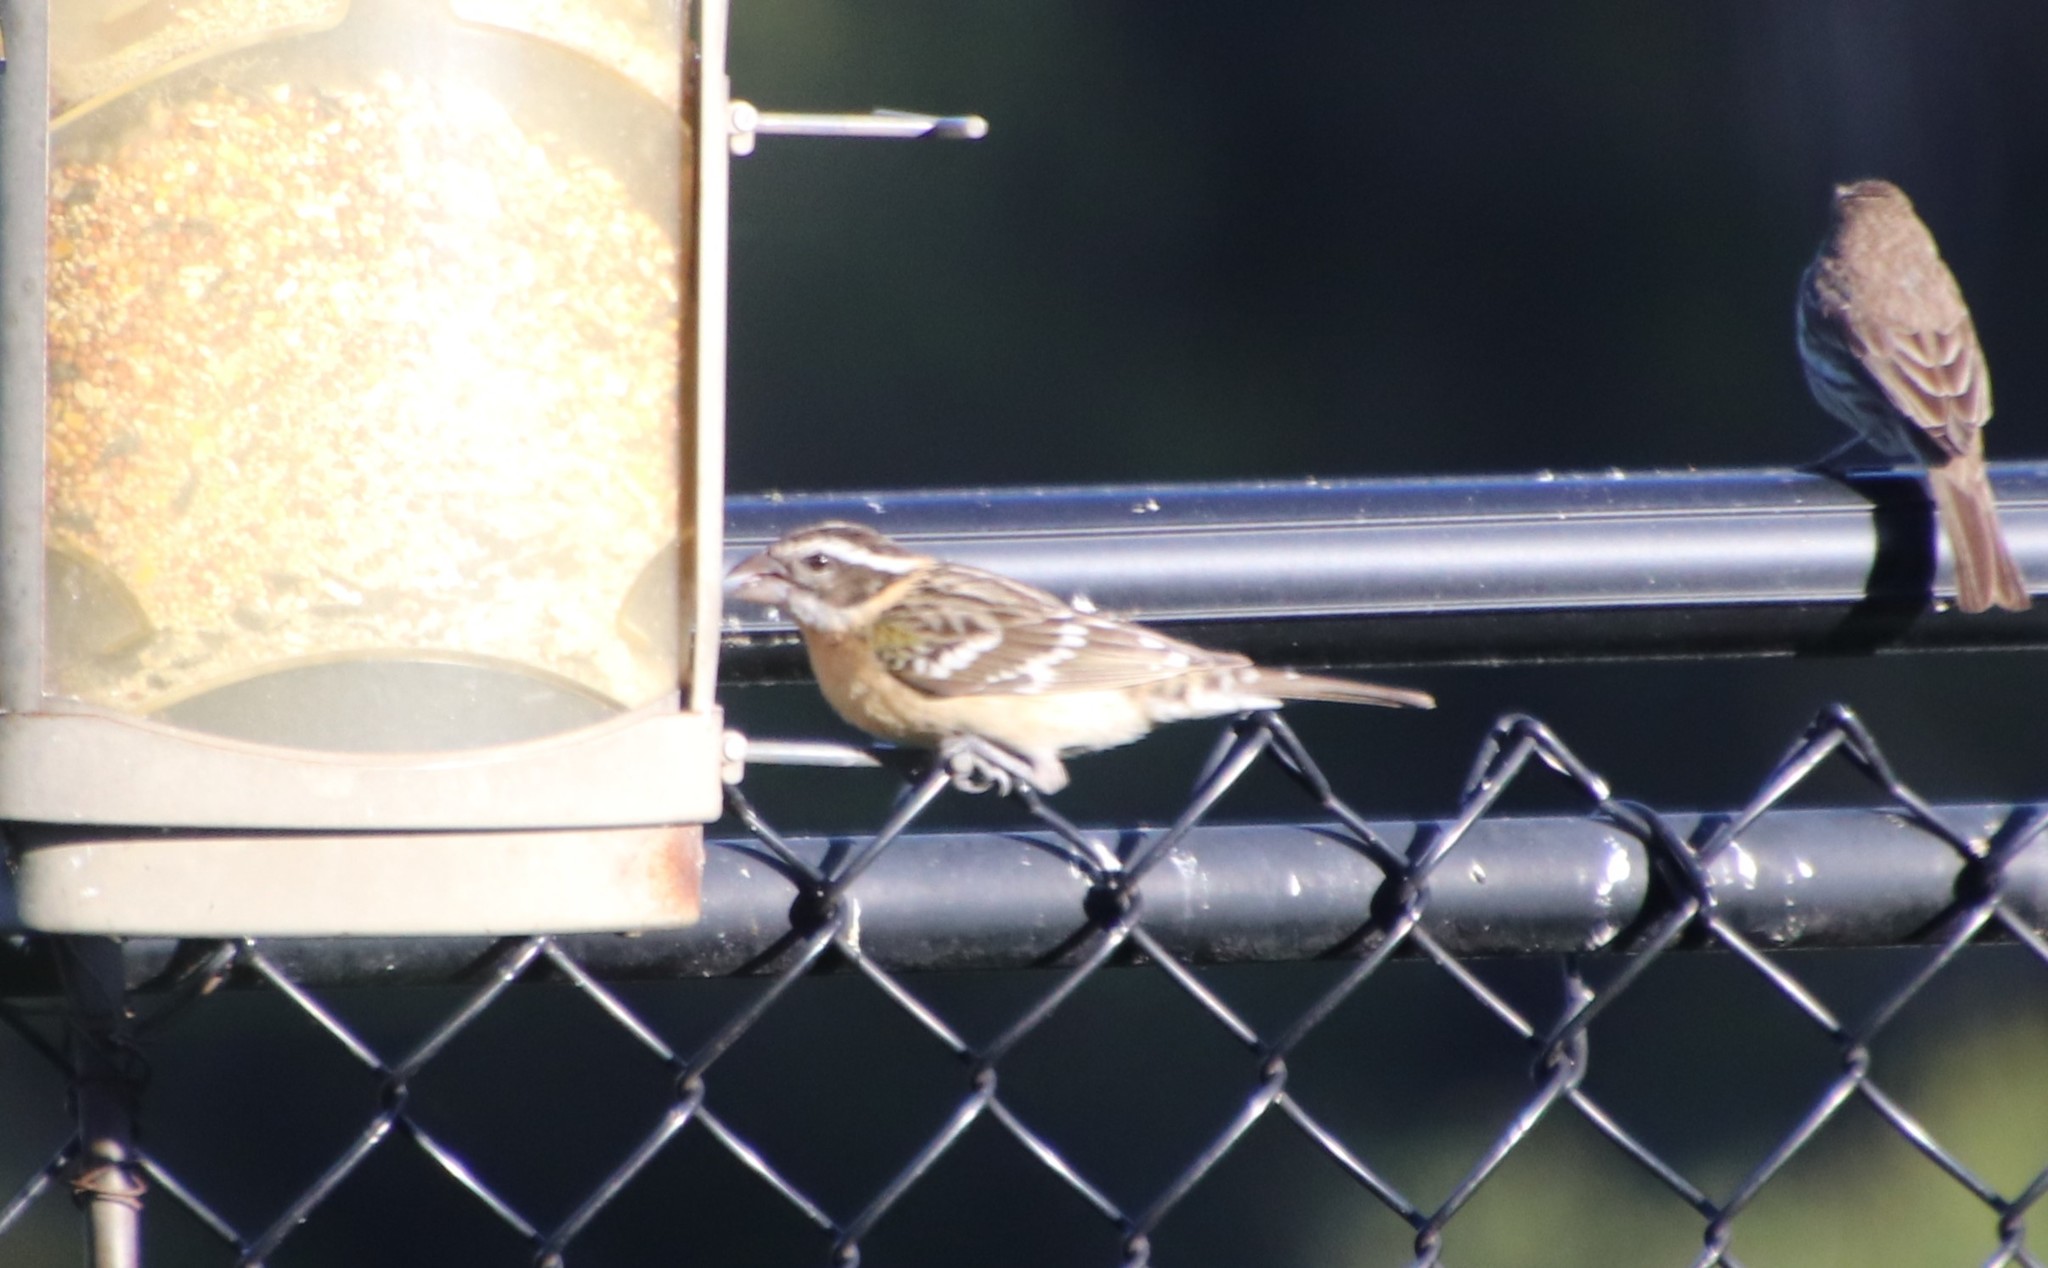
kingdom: Animalia
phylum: Chordata
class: Aves
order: Passeriformes
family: Cardinalidae
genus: Pheucticus
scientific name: Pheucticus melanocephalus
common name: Black-headed grosbeak
